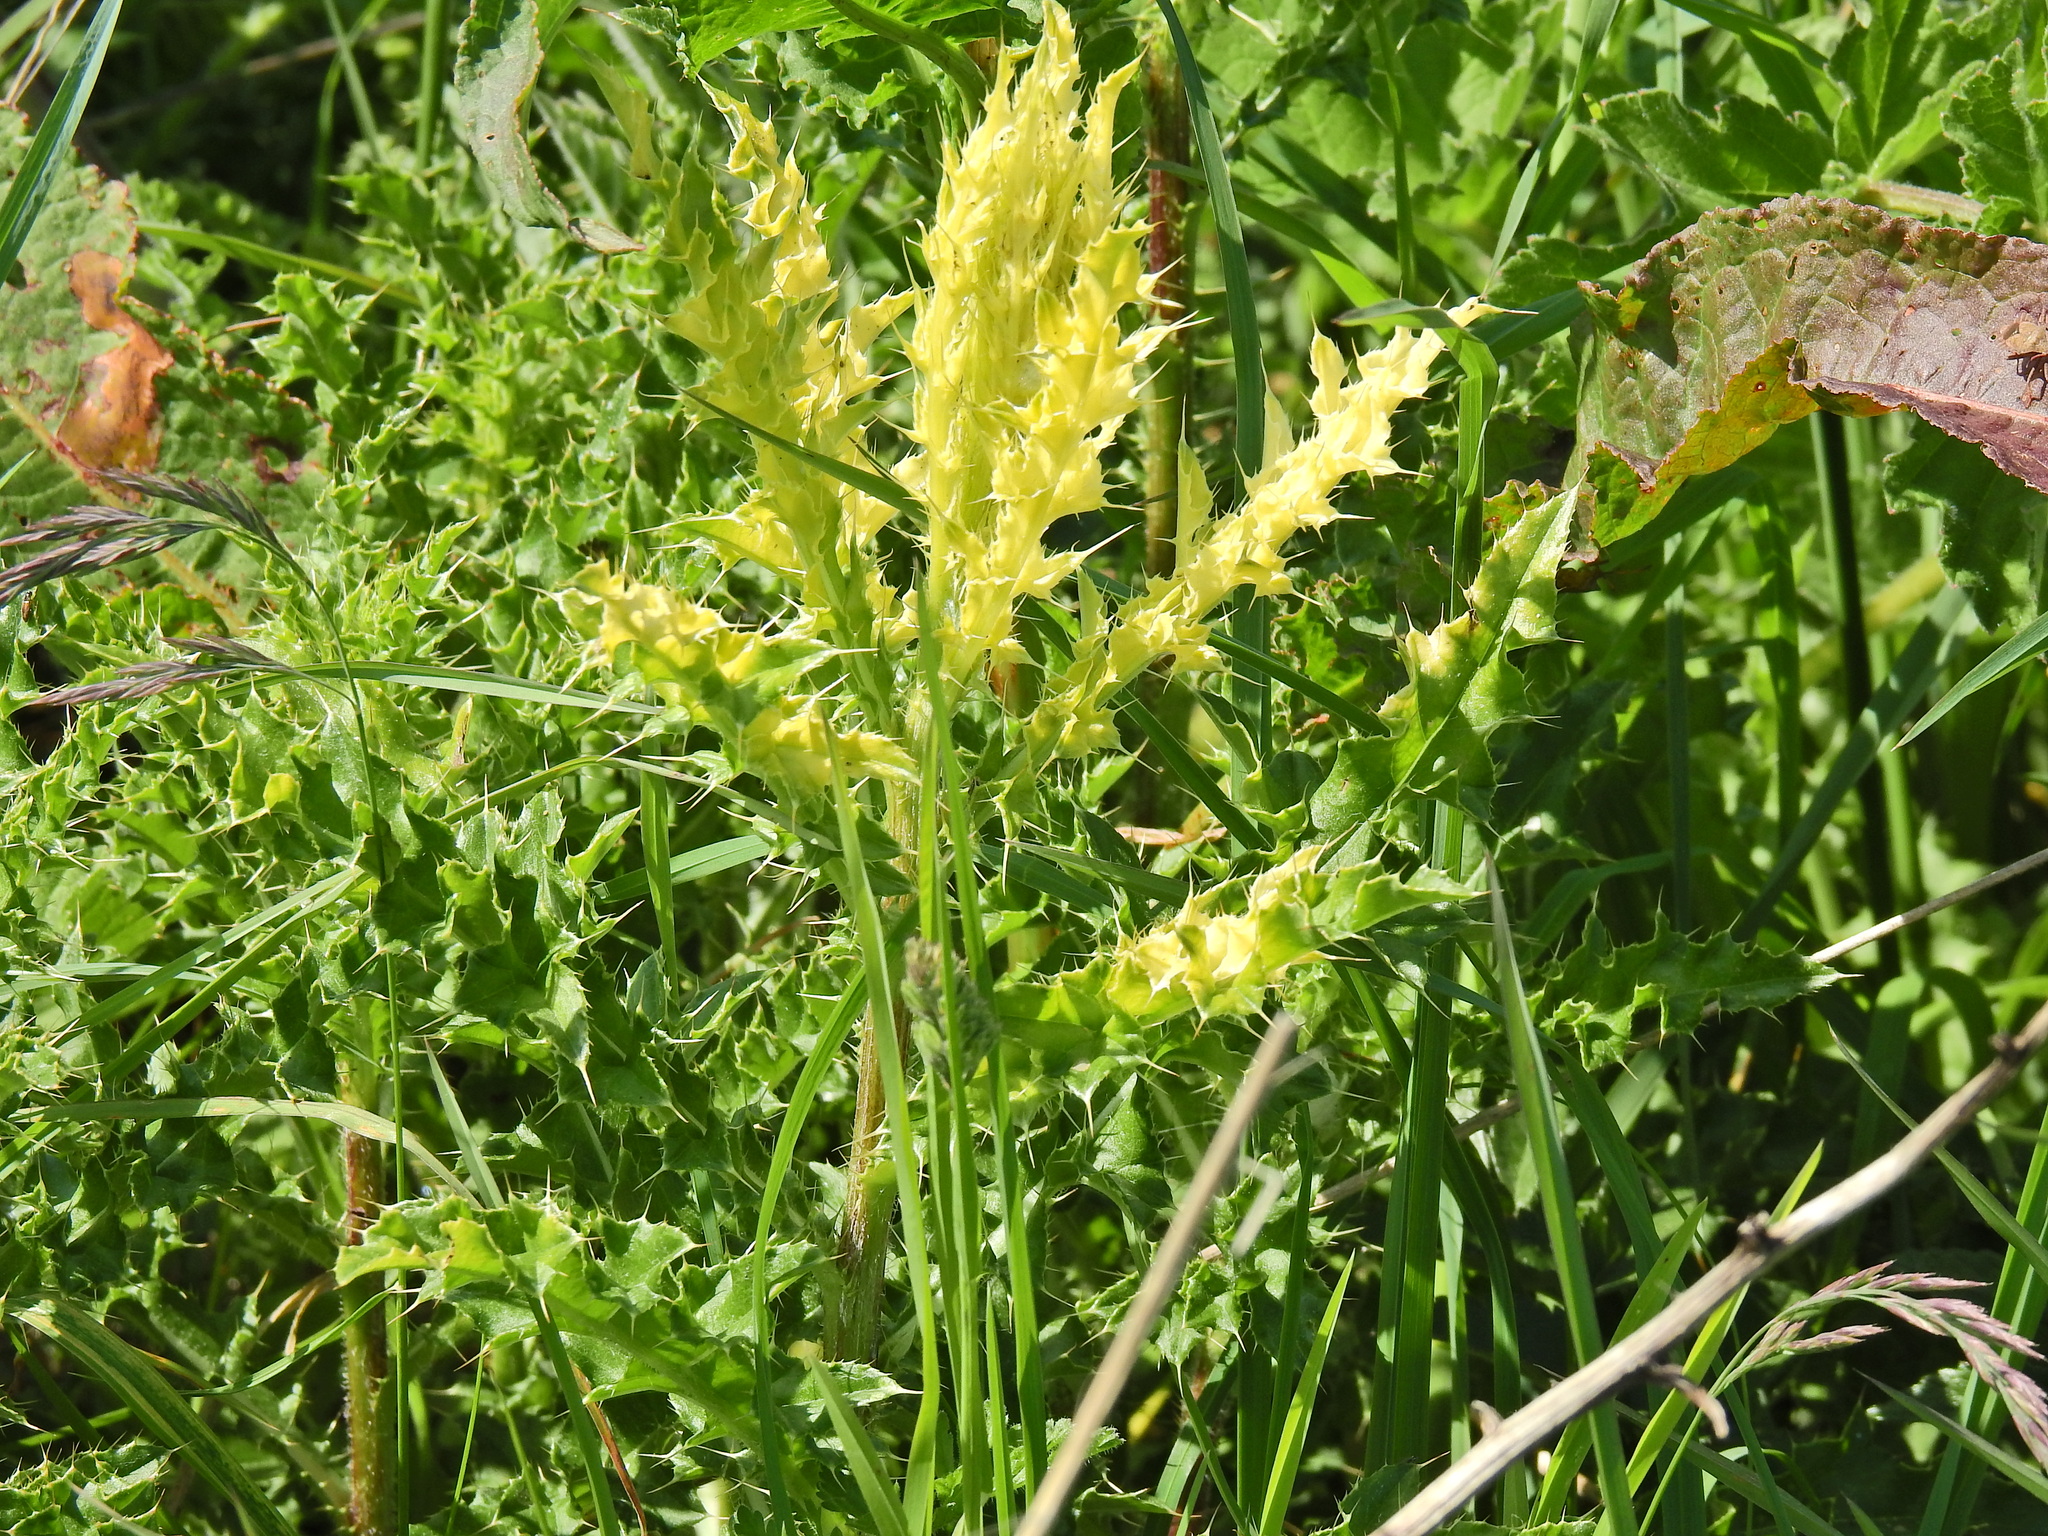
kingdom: Plantae
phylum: Tracheophyta
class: Magnoliopsida
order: Asterales
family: Asteraceae
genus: Cirsium
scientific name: Cirsium arvense
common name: Creeping thistle
